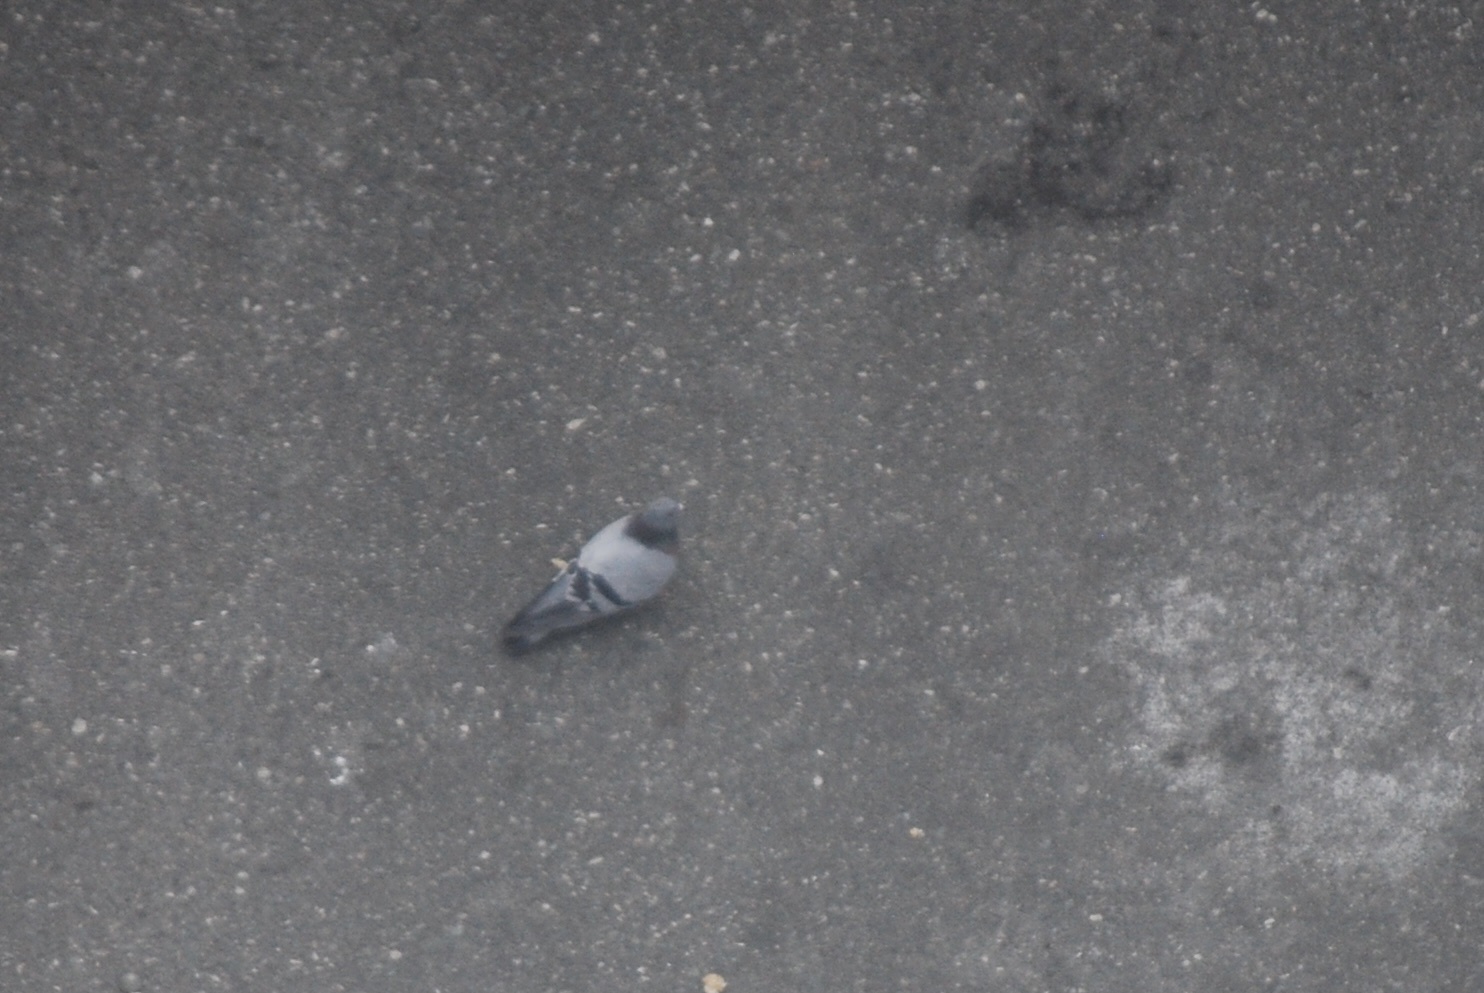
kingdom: Animalia
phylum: Chordata
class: Aves
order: Columbiformes
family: Columbidae
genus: Columba
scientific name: Columba livia
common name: Rock pigeon
